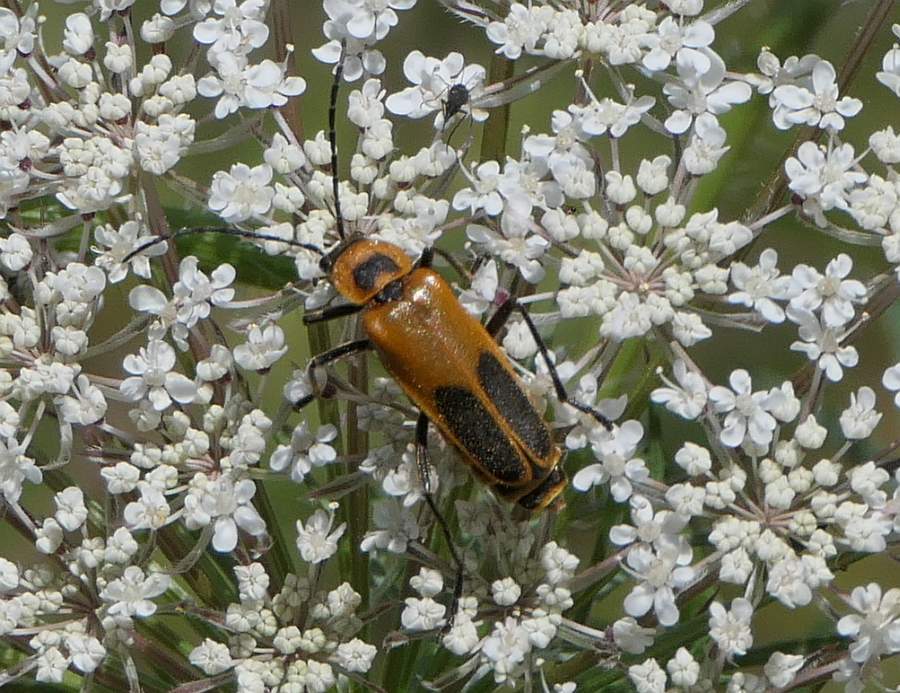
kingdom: Animalia
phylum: Arthropoda
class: Insecta
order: Coleoptera
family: Cantharidae
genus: Chauliognathus
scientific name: Chauliognathus pensylvanicus
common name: Goldenrod soldier beetle
